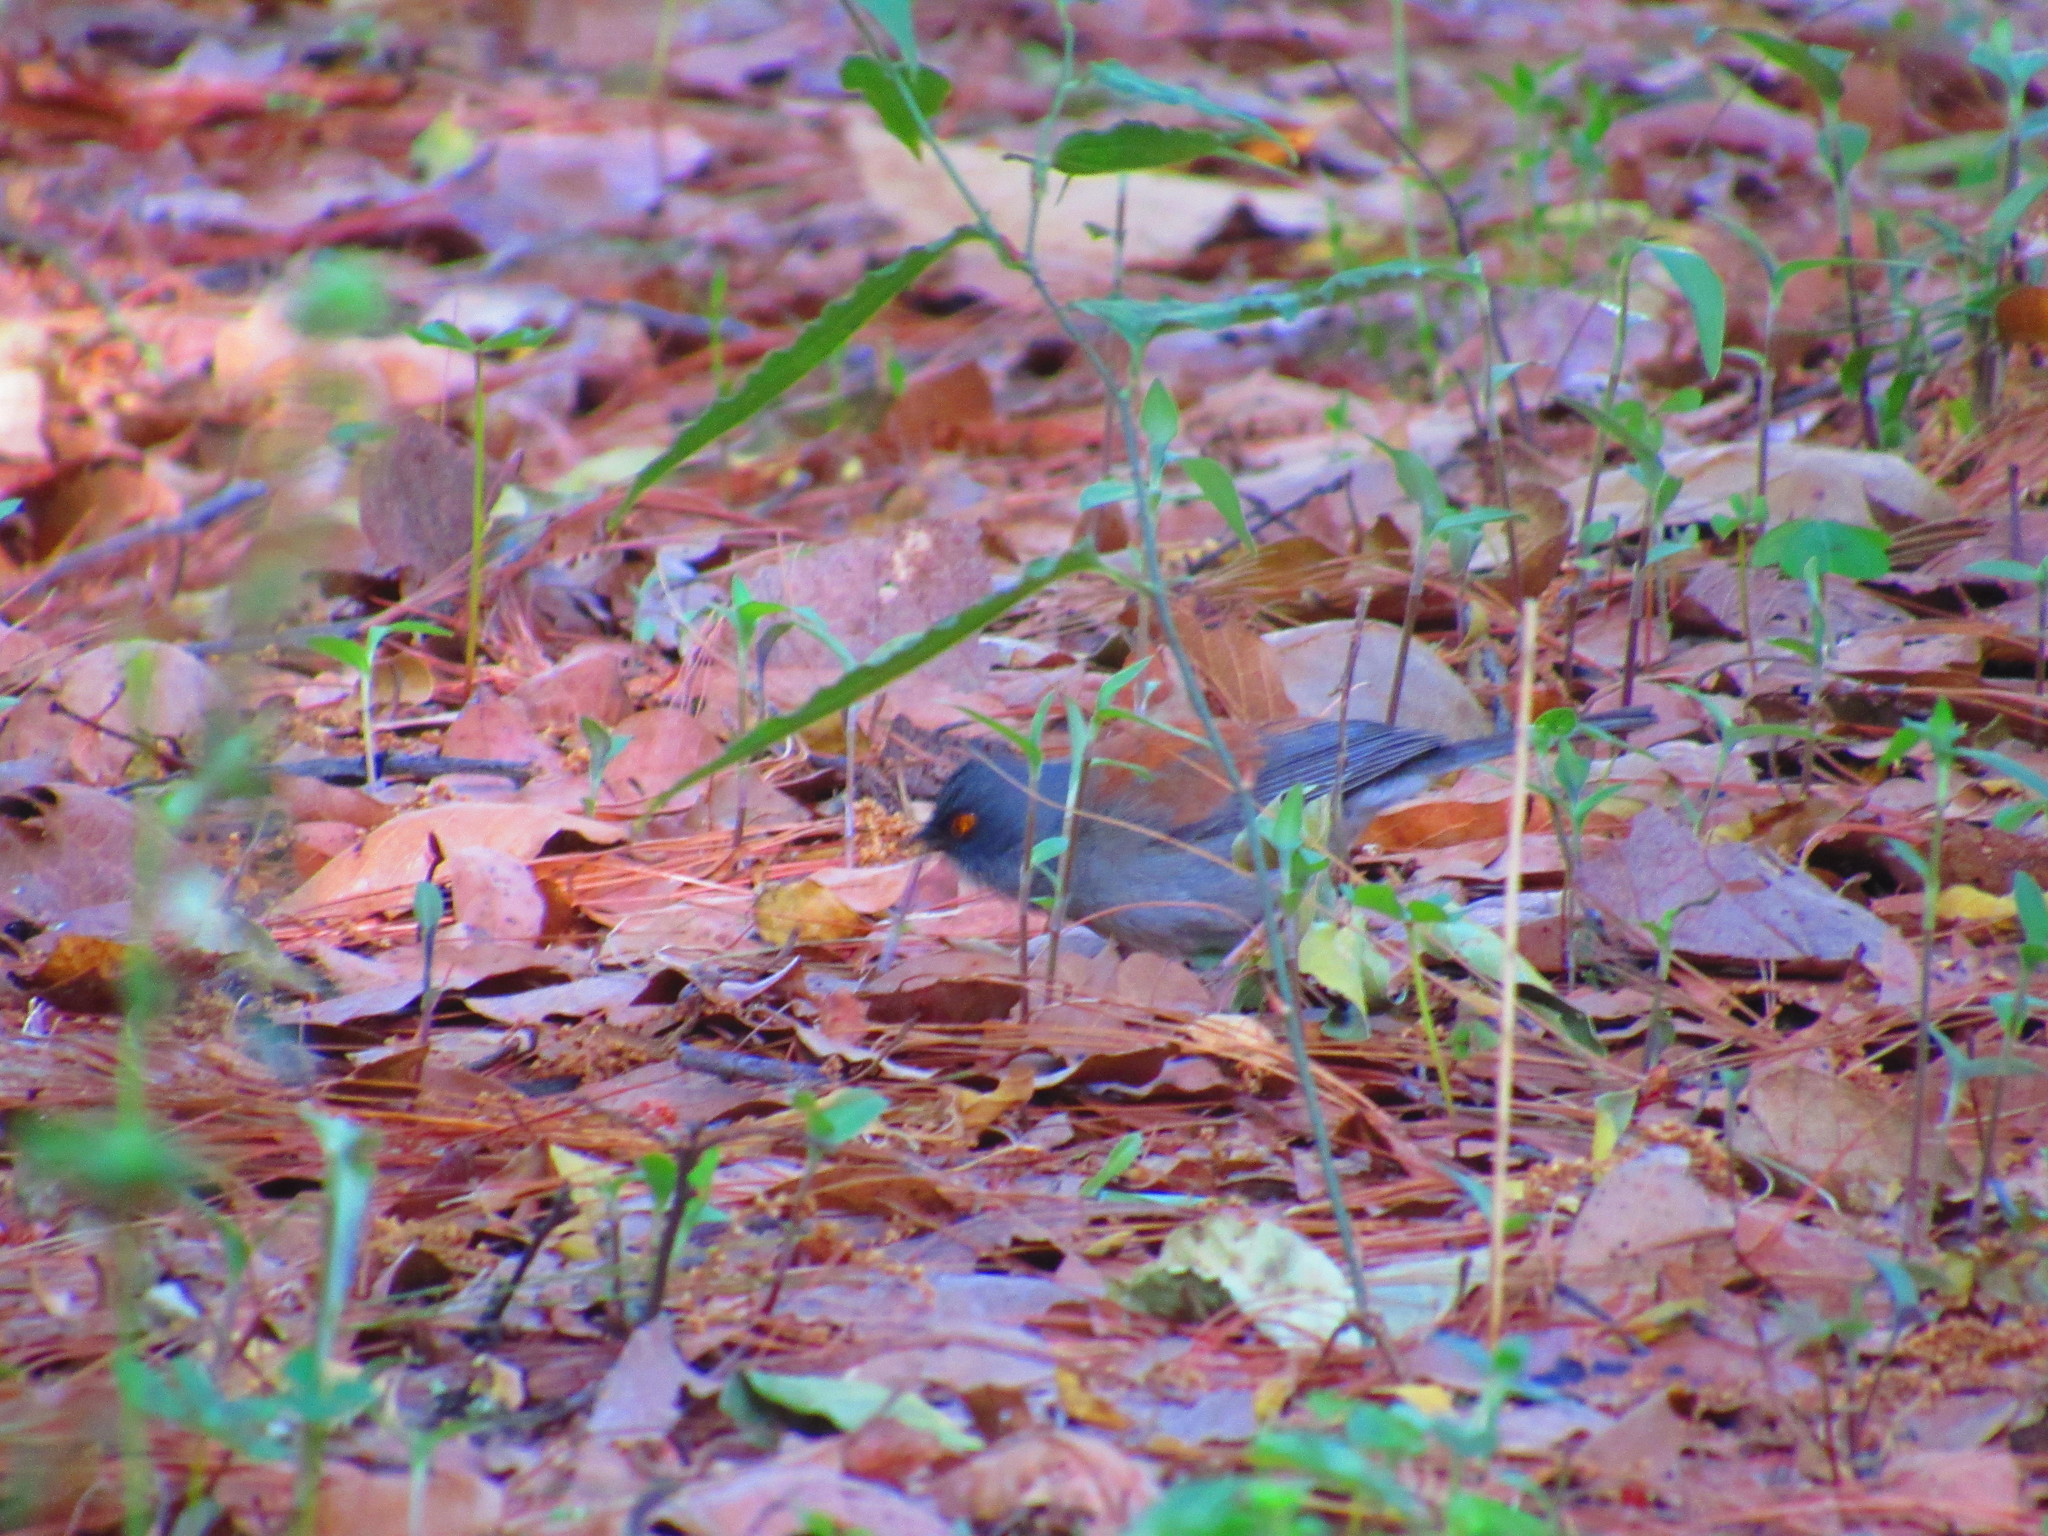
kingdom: Animalia
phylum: Chordata
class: Aves
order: Passeriformes
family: Passerellidae
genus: Junco
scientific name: Junco phaeonotus
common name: Yellow-eyed junco
